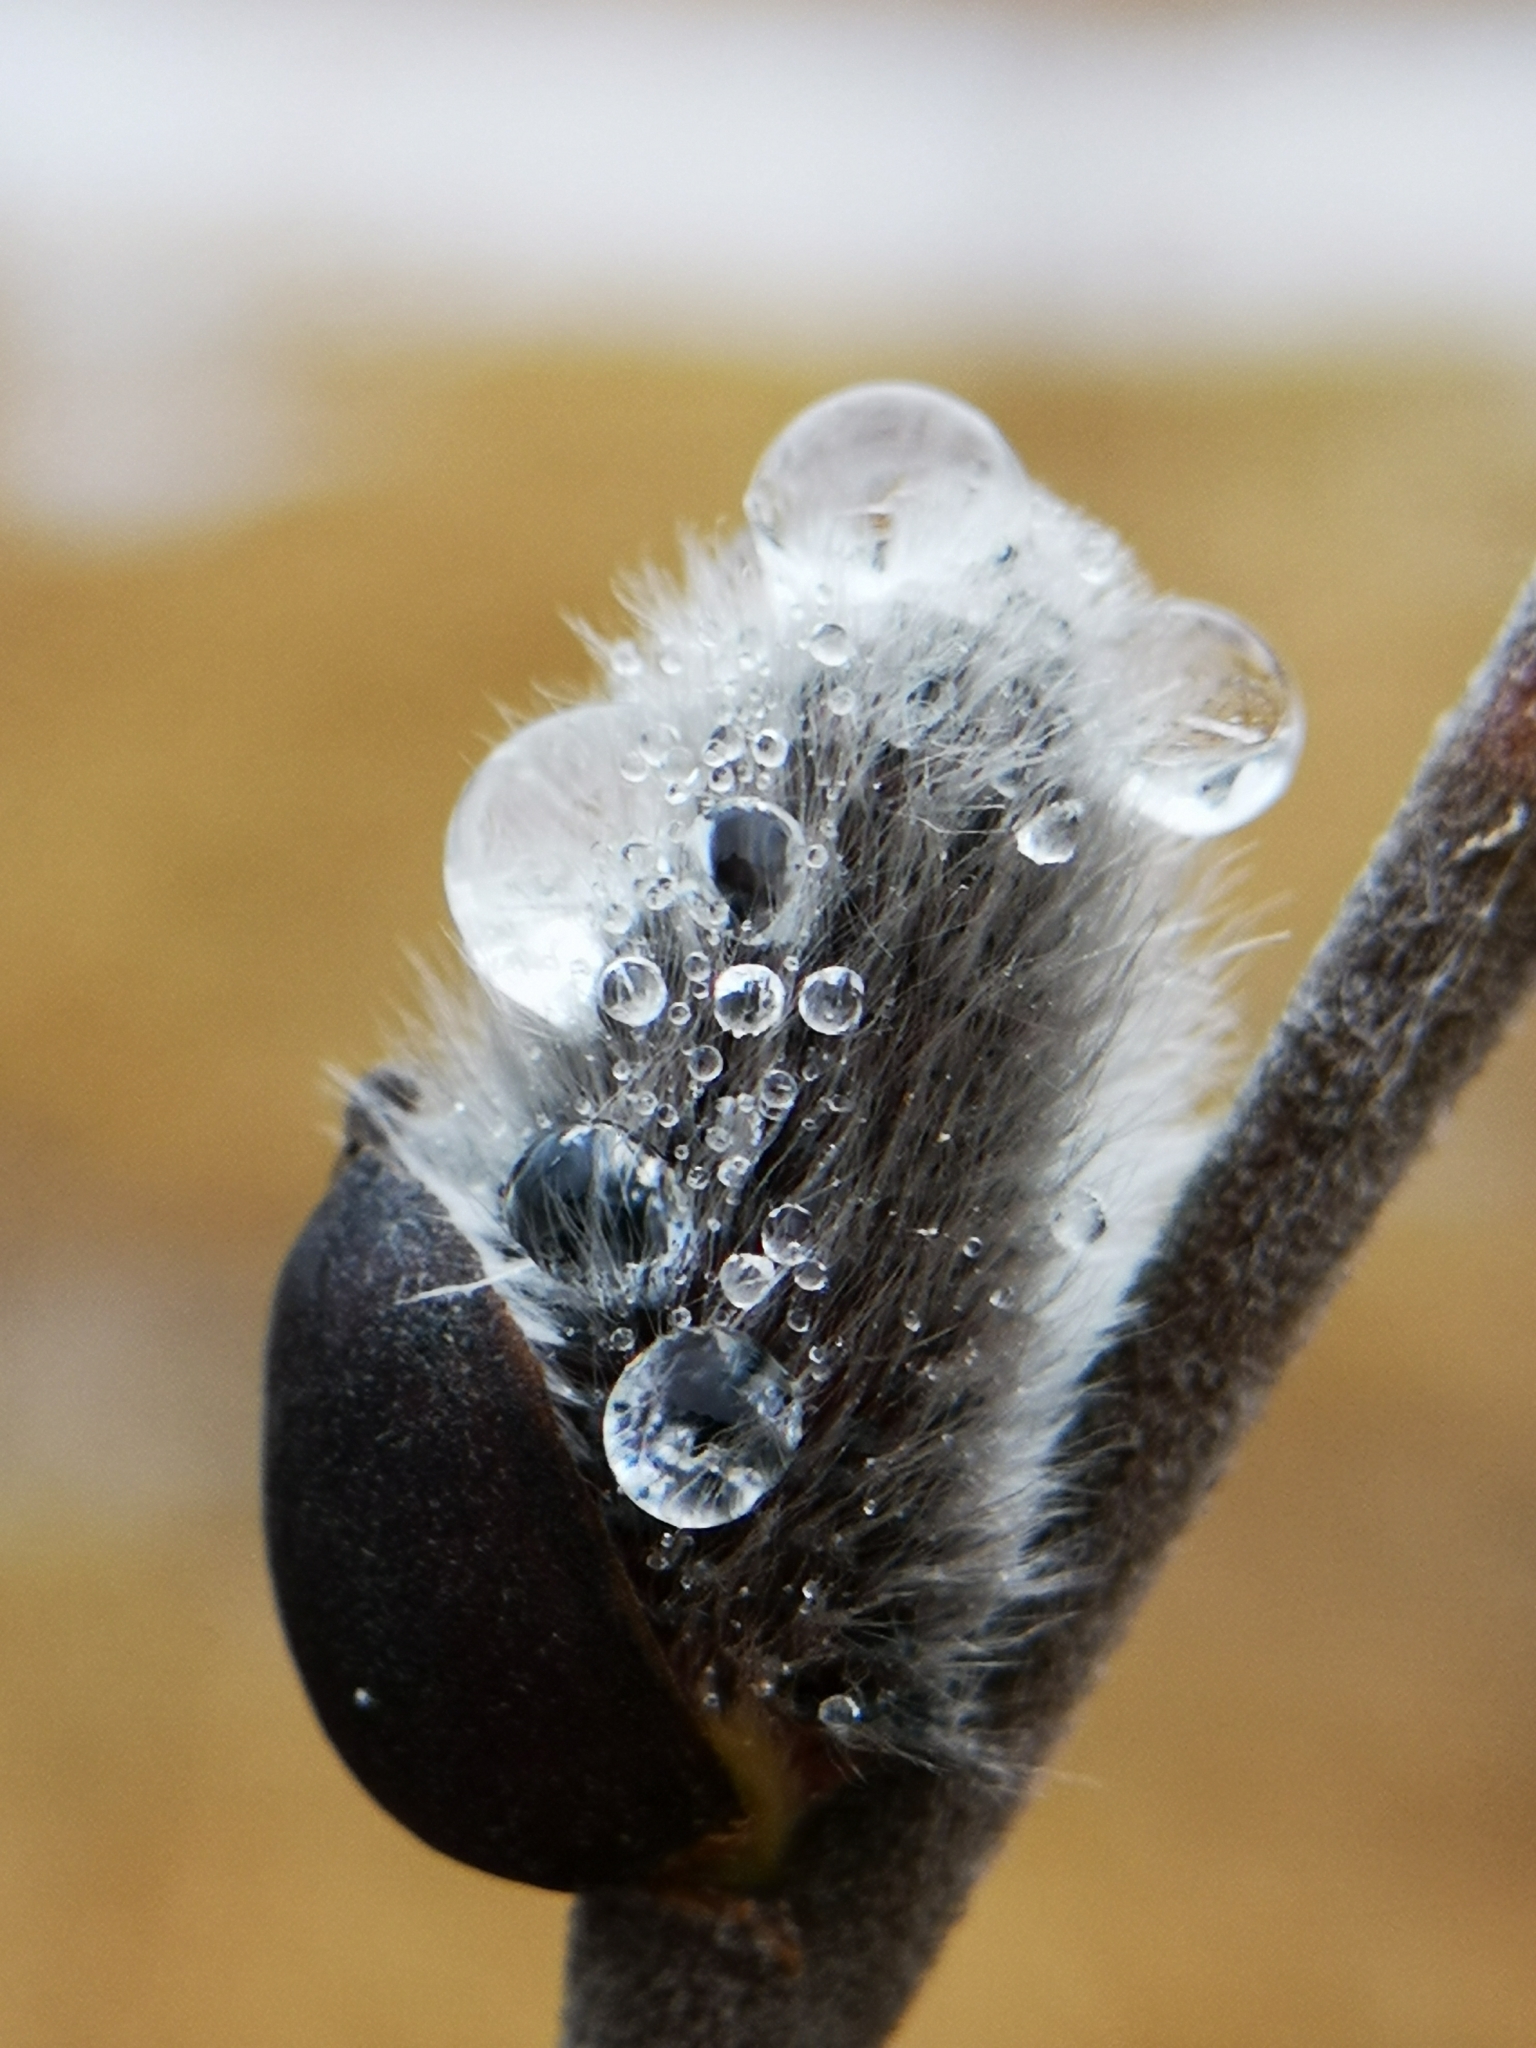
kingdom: Plantae
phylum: Tracheophyta
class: Magnoliopsida
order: Malpighiales
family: Salicaceae
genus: Salix
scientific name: Salix discolor
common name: Glaucous willow
